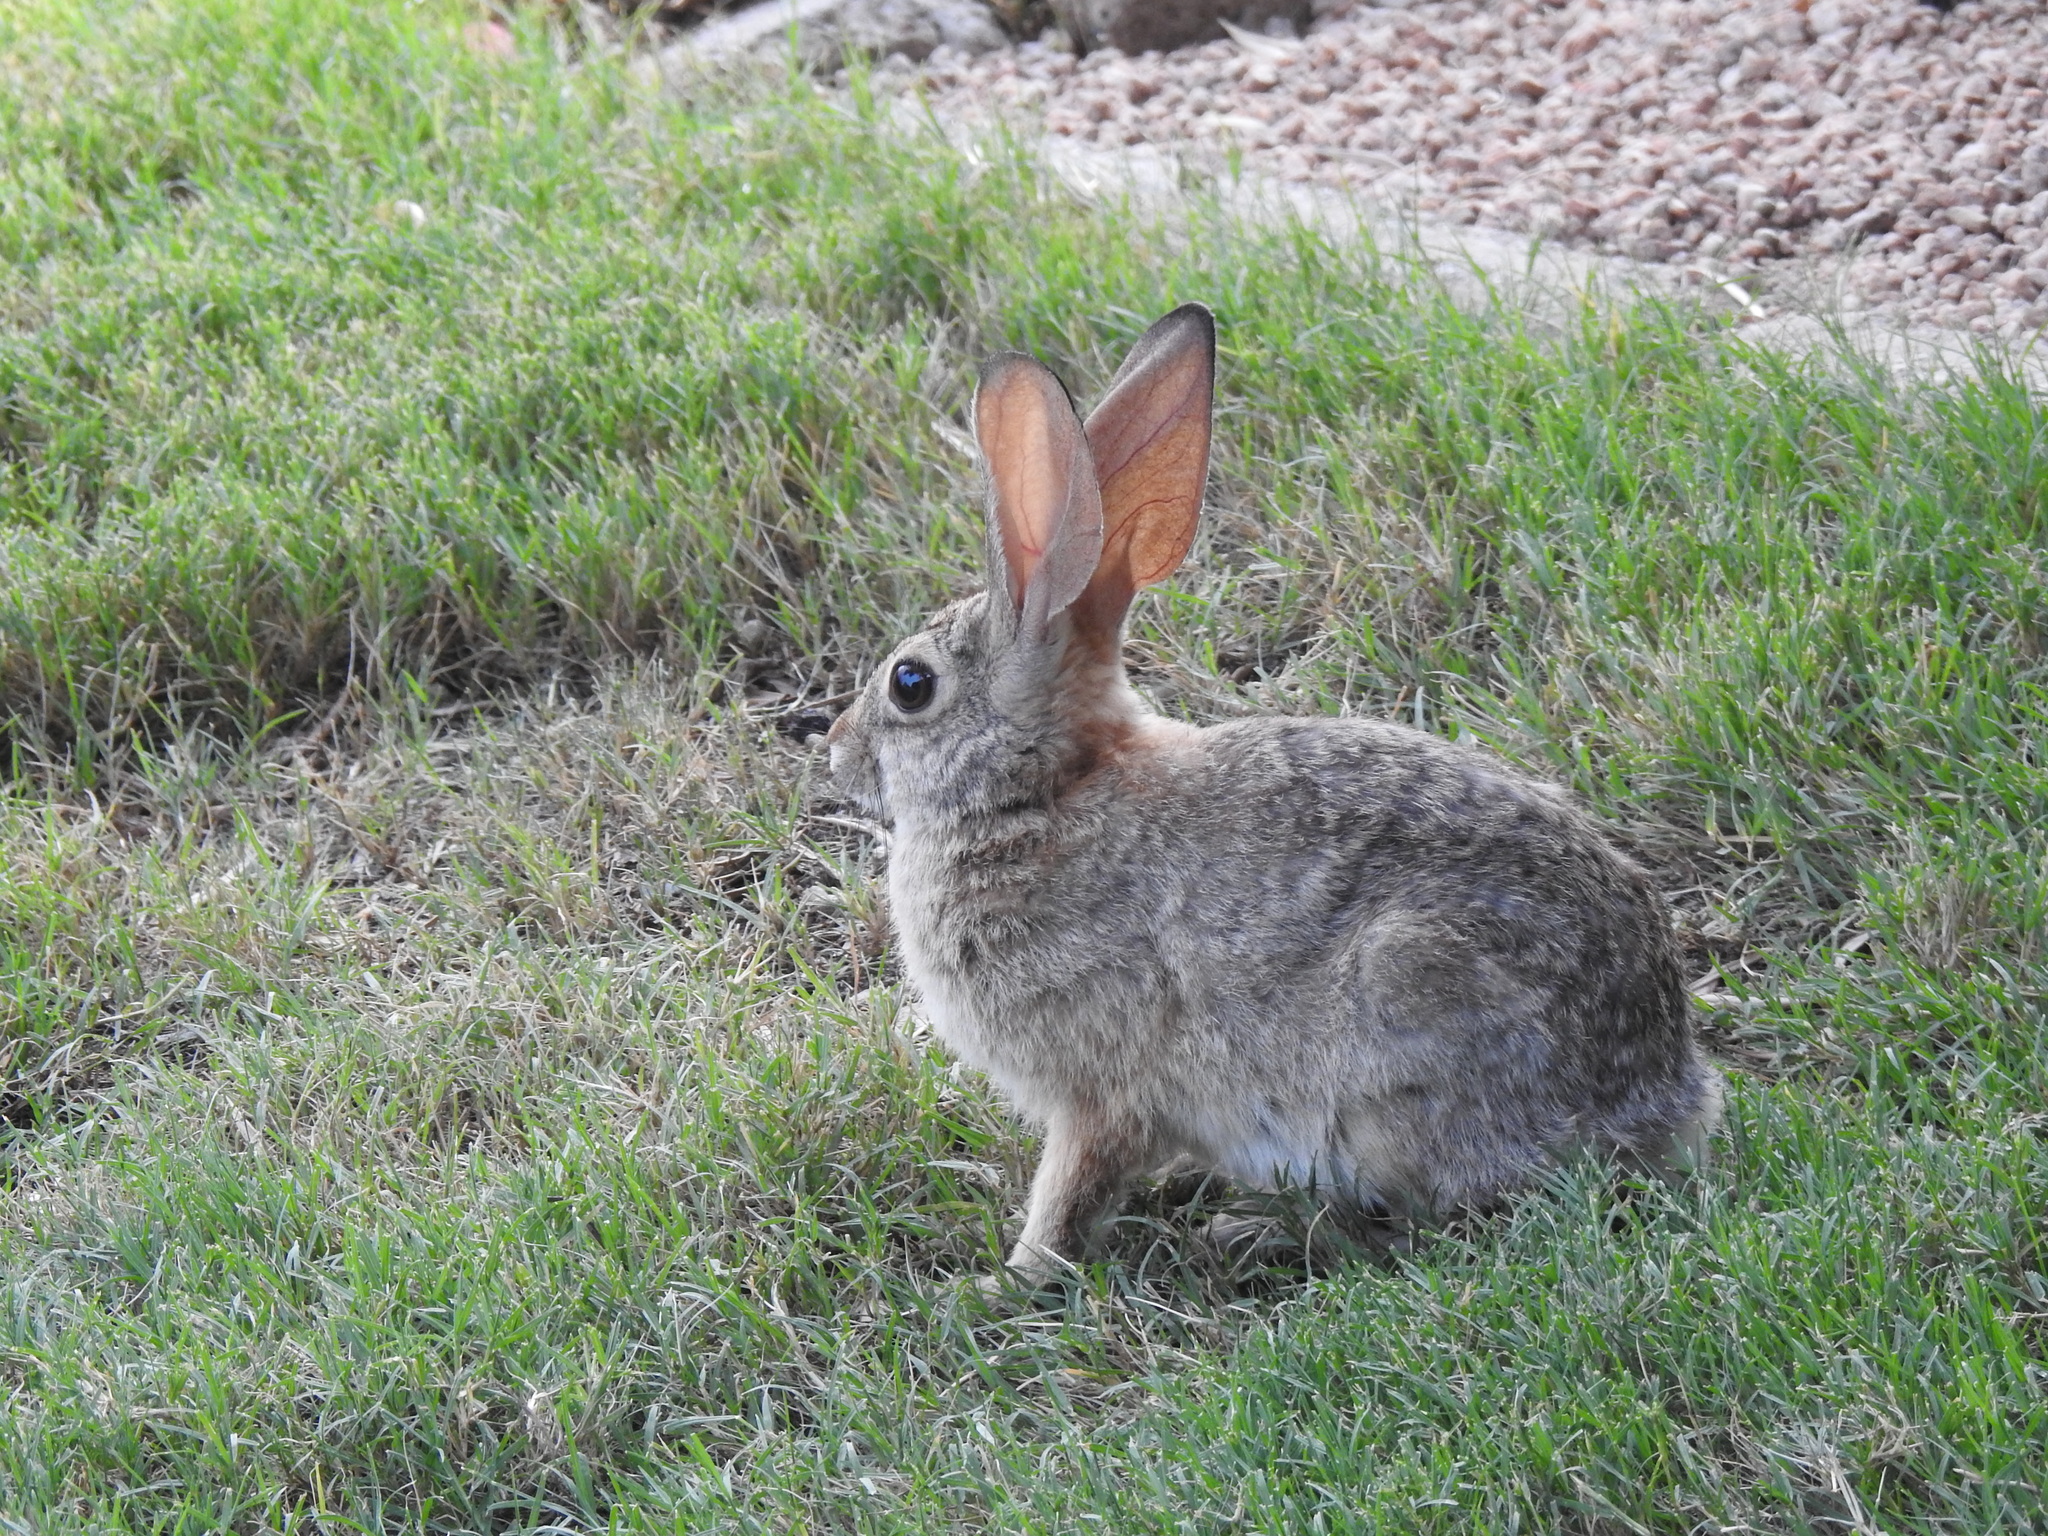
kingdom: Animalia
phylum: Chordata
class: Mammalia
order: Lagomorpha
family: Leporidae
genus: Sylvilagus
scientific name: Sylvilagus audubonii
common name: Desert cottontail
